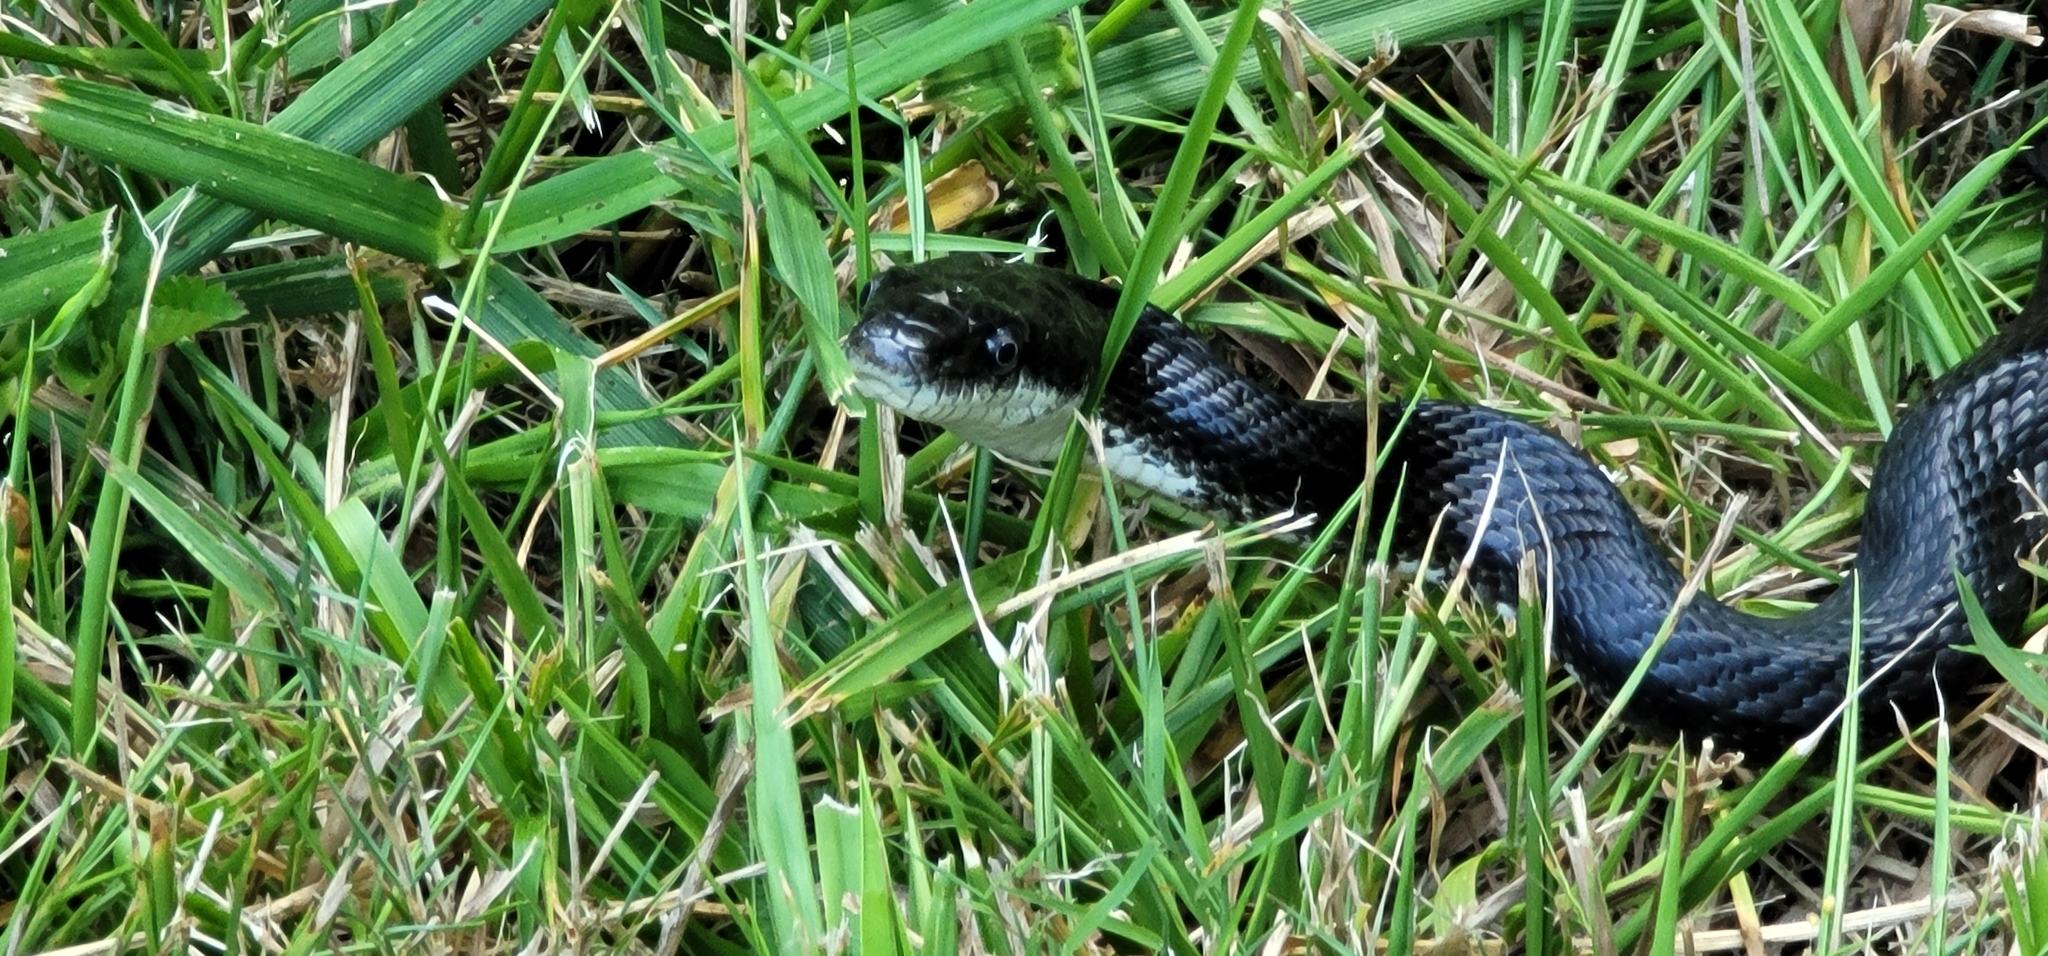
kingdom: Animalia
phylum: Chordata
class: Squamata
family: Colubridae
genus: Pantherophis
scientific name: Pantherophis alleghaniensis
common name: Eastern rat snake
